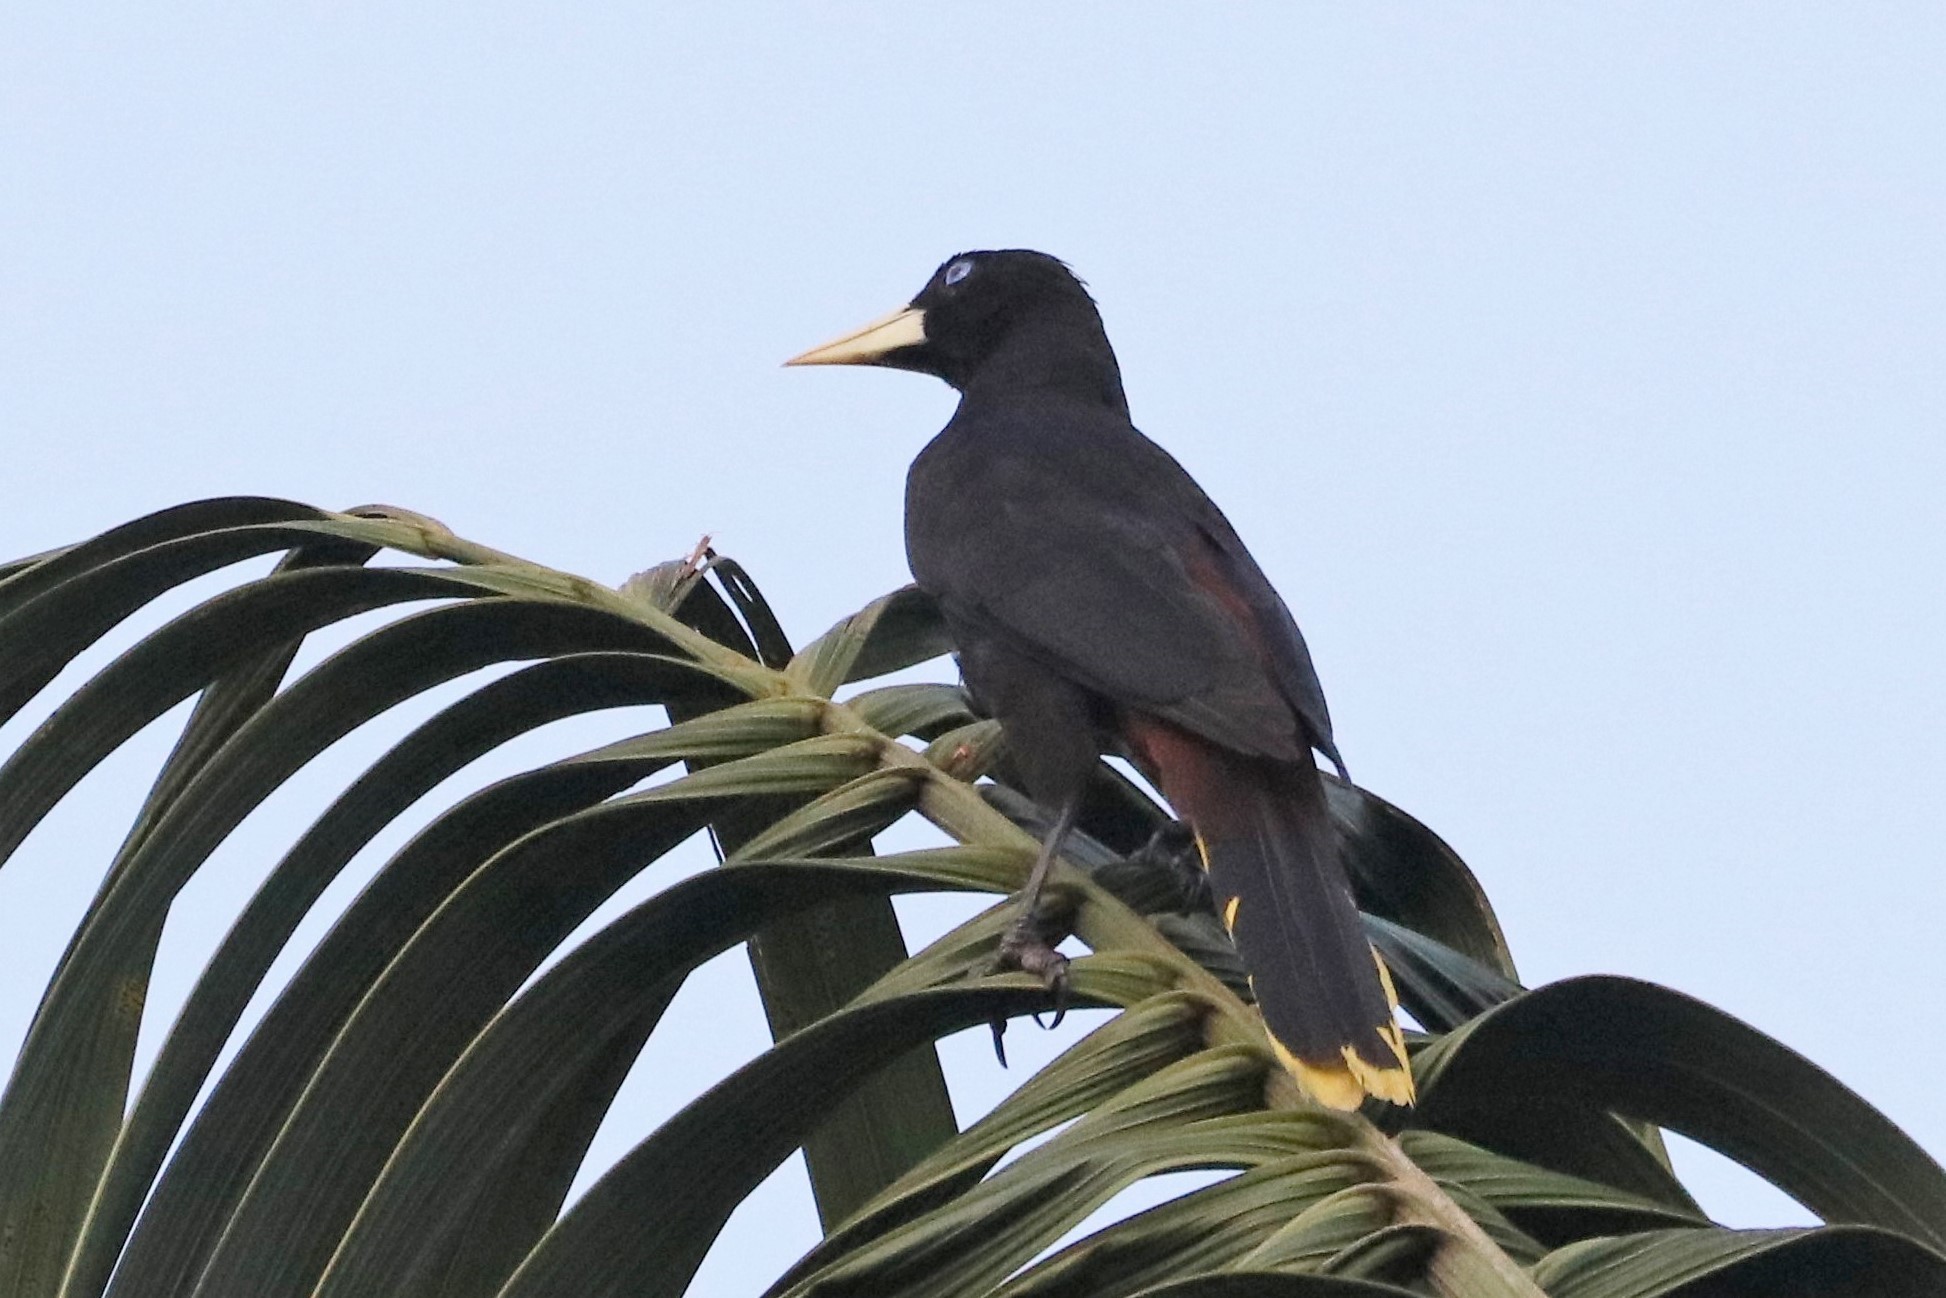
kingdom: Animalia
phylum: Chordata
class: Aves
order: Passeriformes
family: Icteridae
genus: Psarocolius
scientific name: Psarocolius decumanus
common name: Crested oropendola
